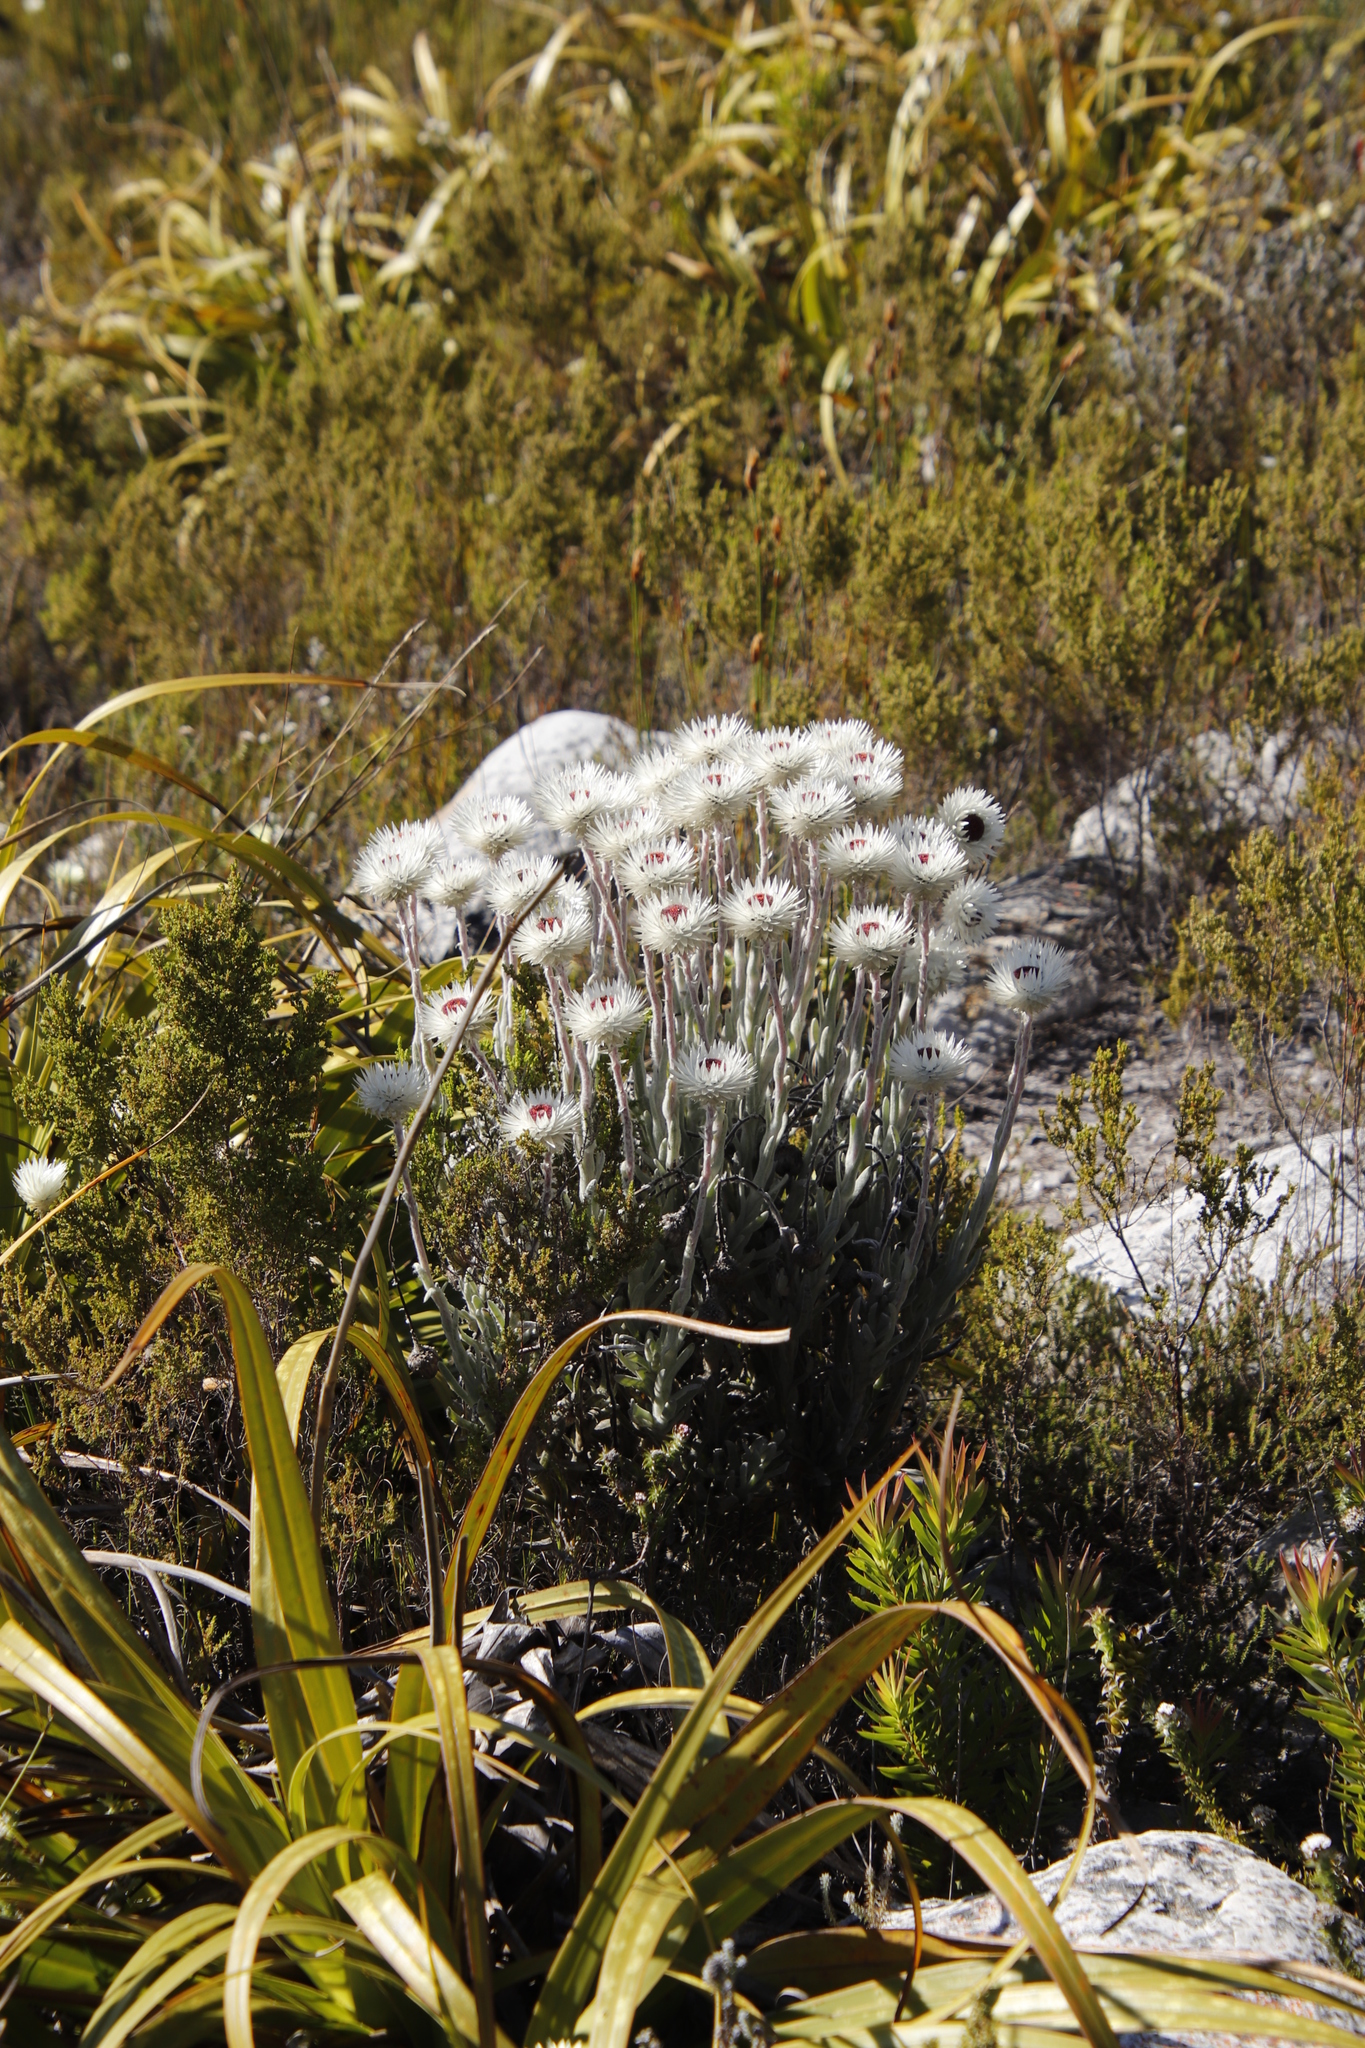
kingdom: Plantae
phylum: Tracheophyta
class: Magnoliopsida
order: Asterales
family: Asteraceae
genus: Syncarpha
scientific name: Syncarpha vestita
